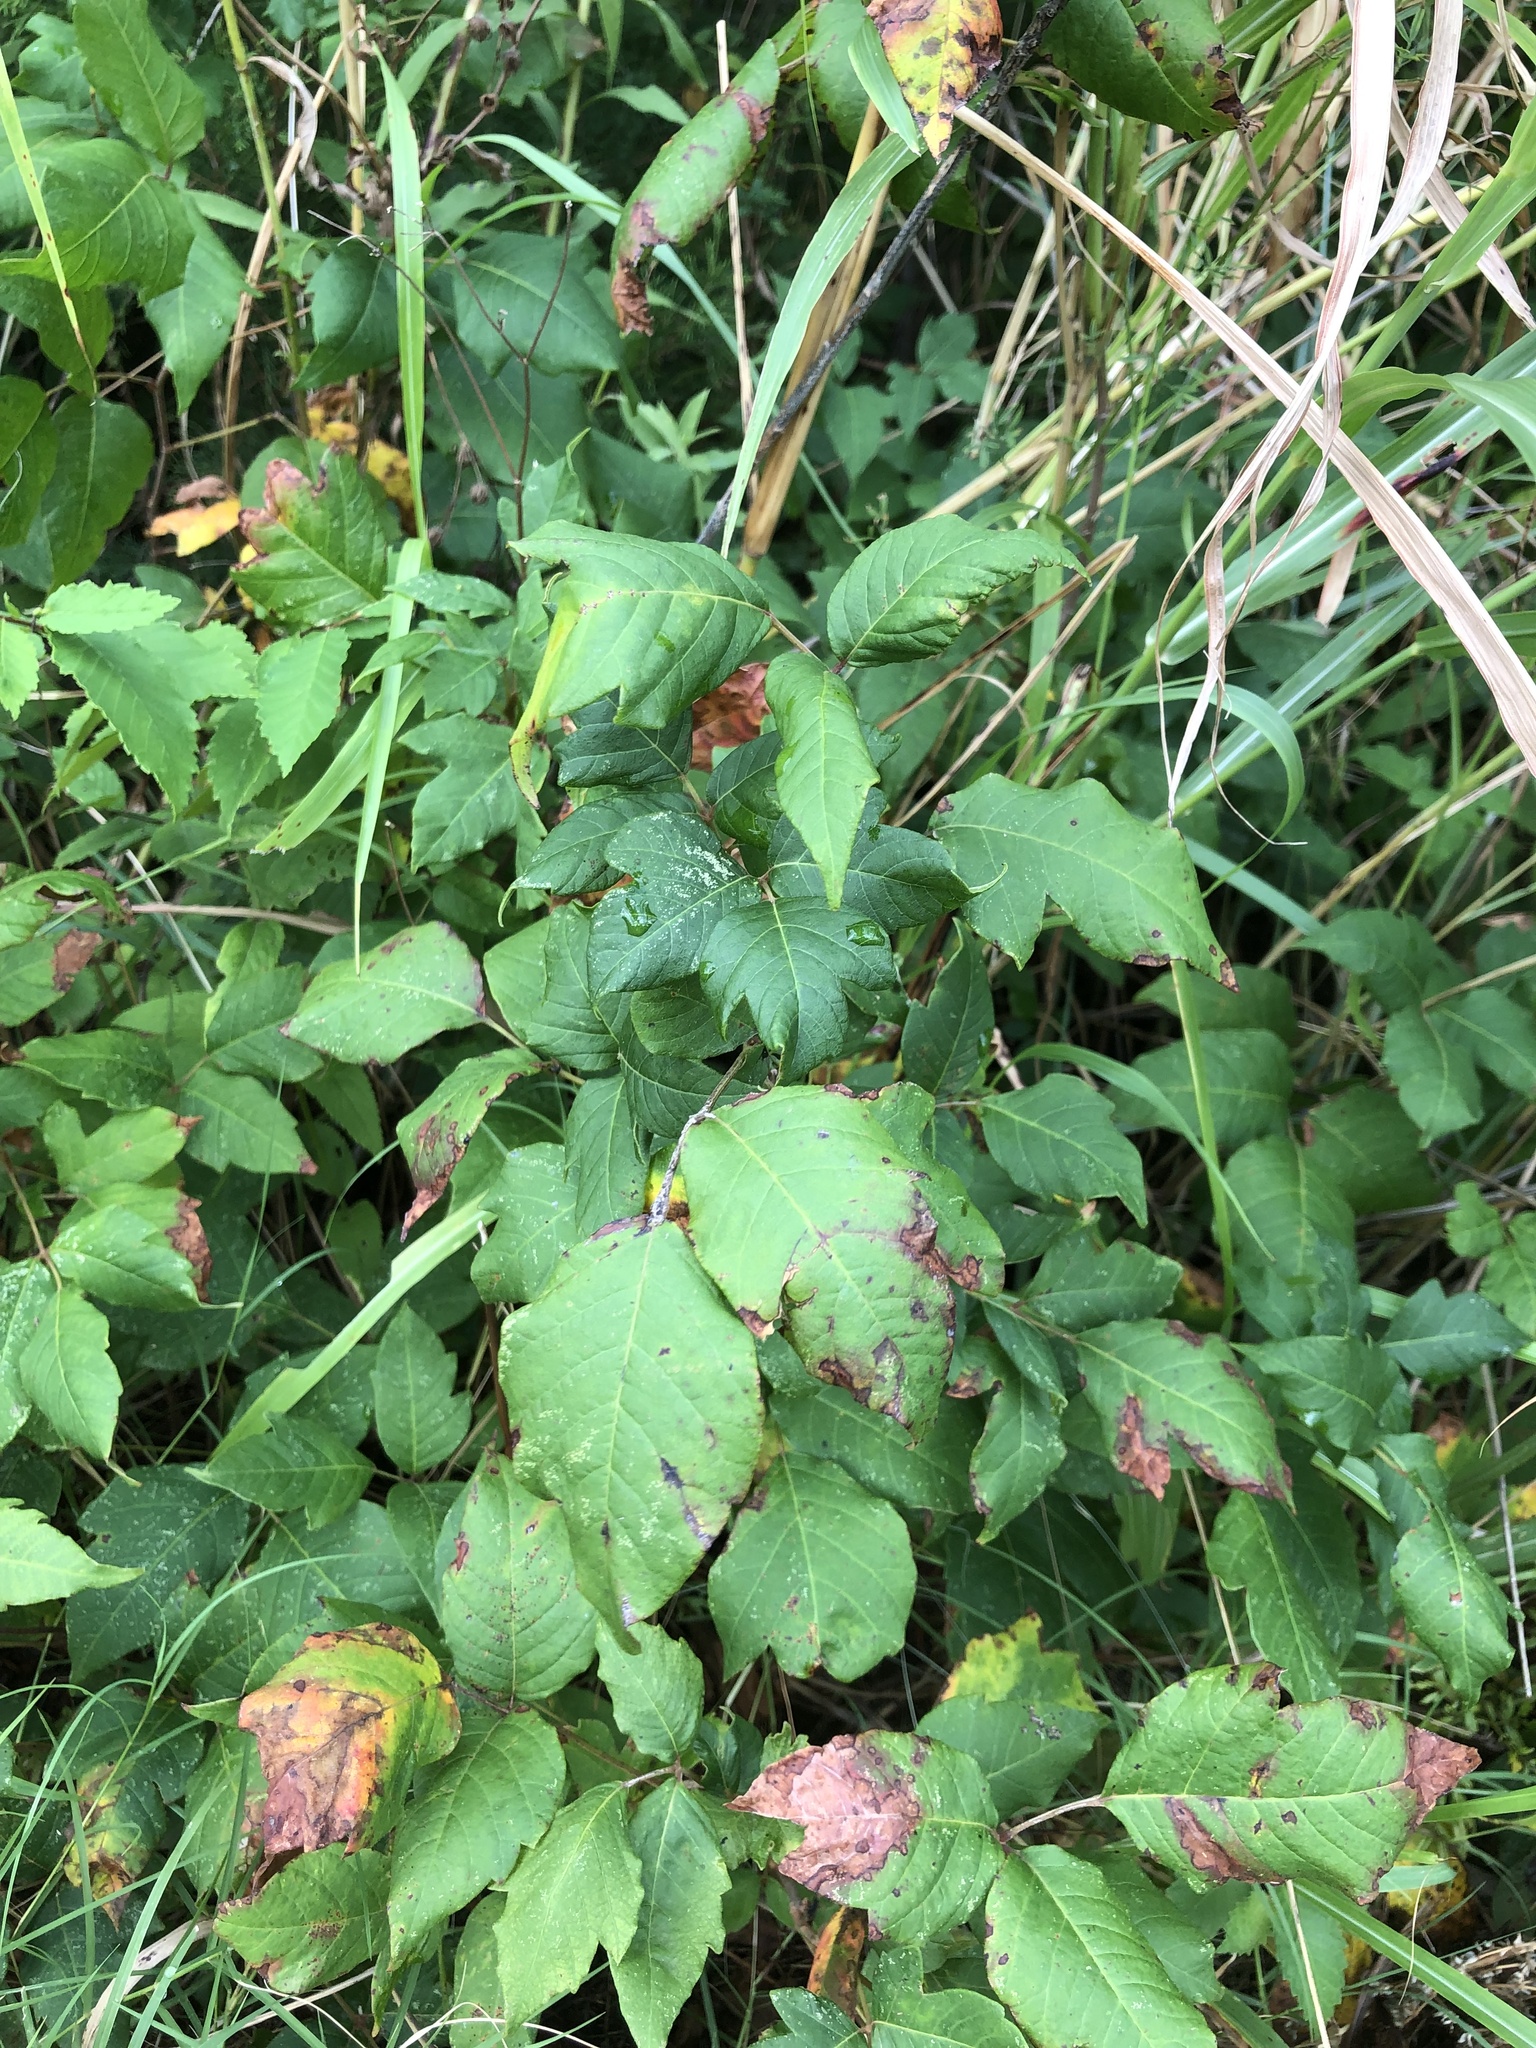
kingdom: Plantae
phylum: Tracheophyta
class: Magnoliopsida
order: Sapindales
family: Anacardiaceae
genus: Toxicodendron
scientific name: Toxicodendron radicans
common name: Poison ivy
